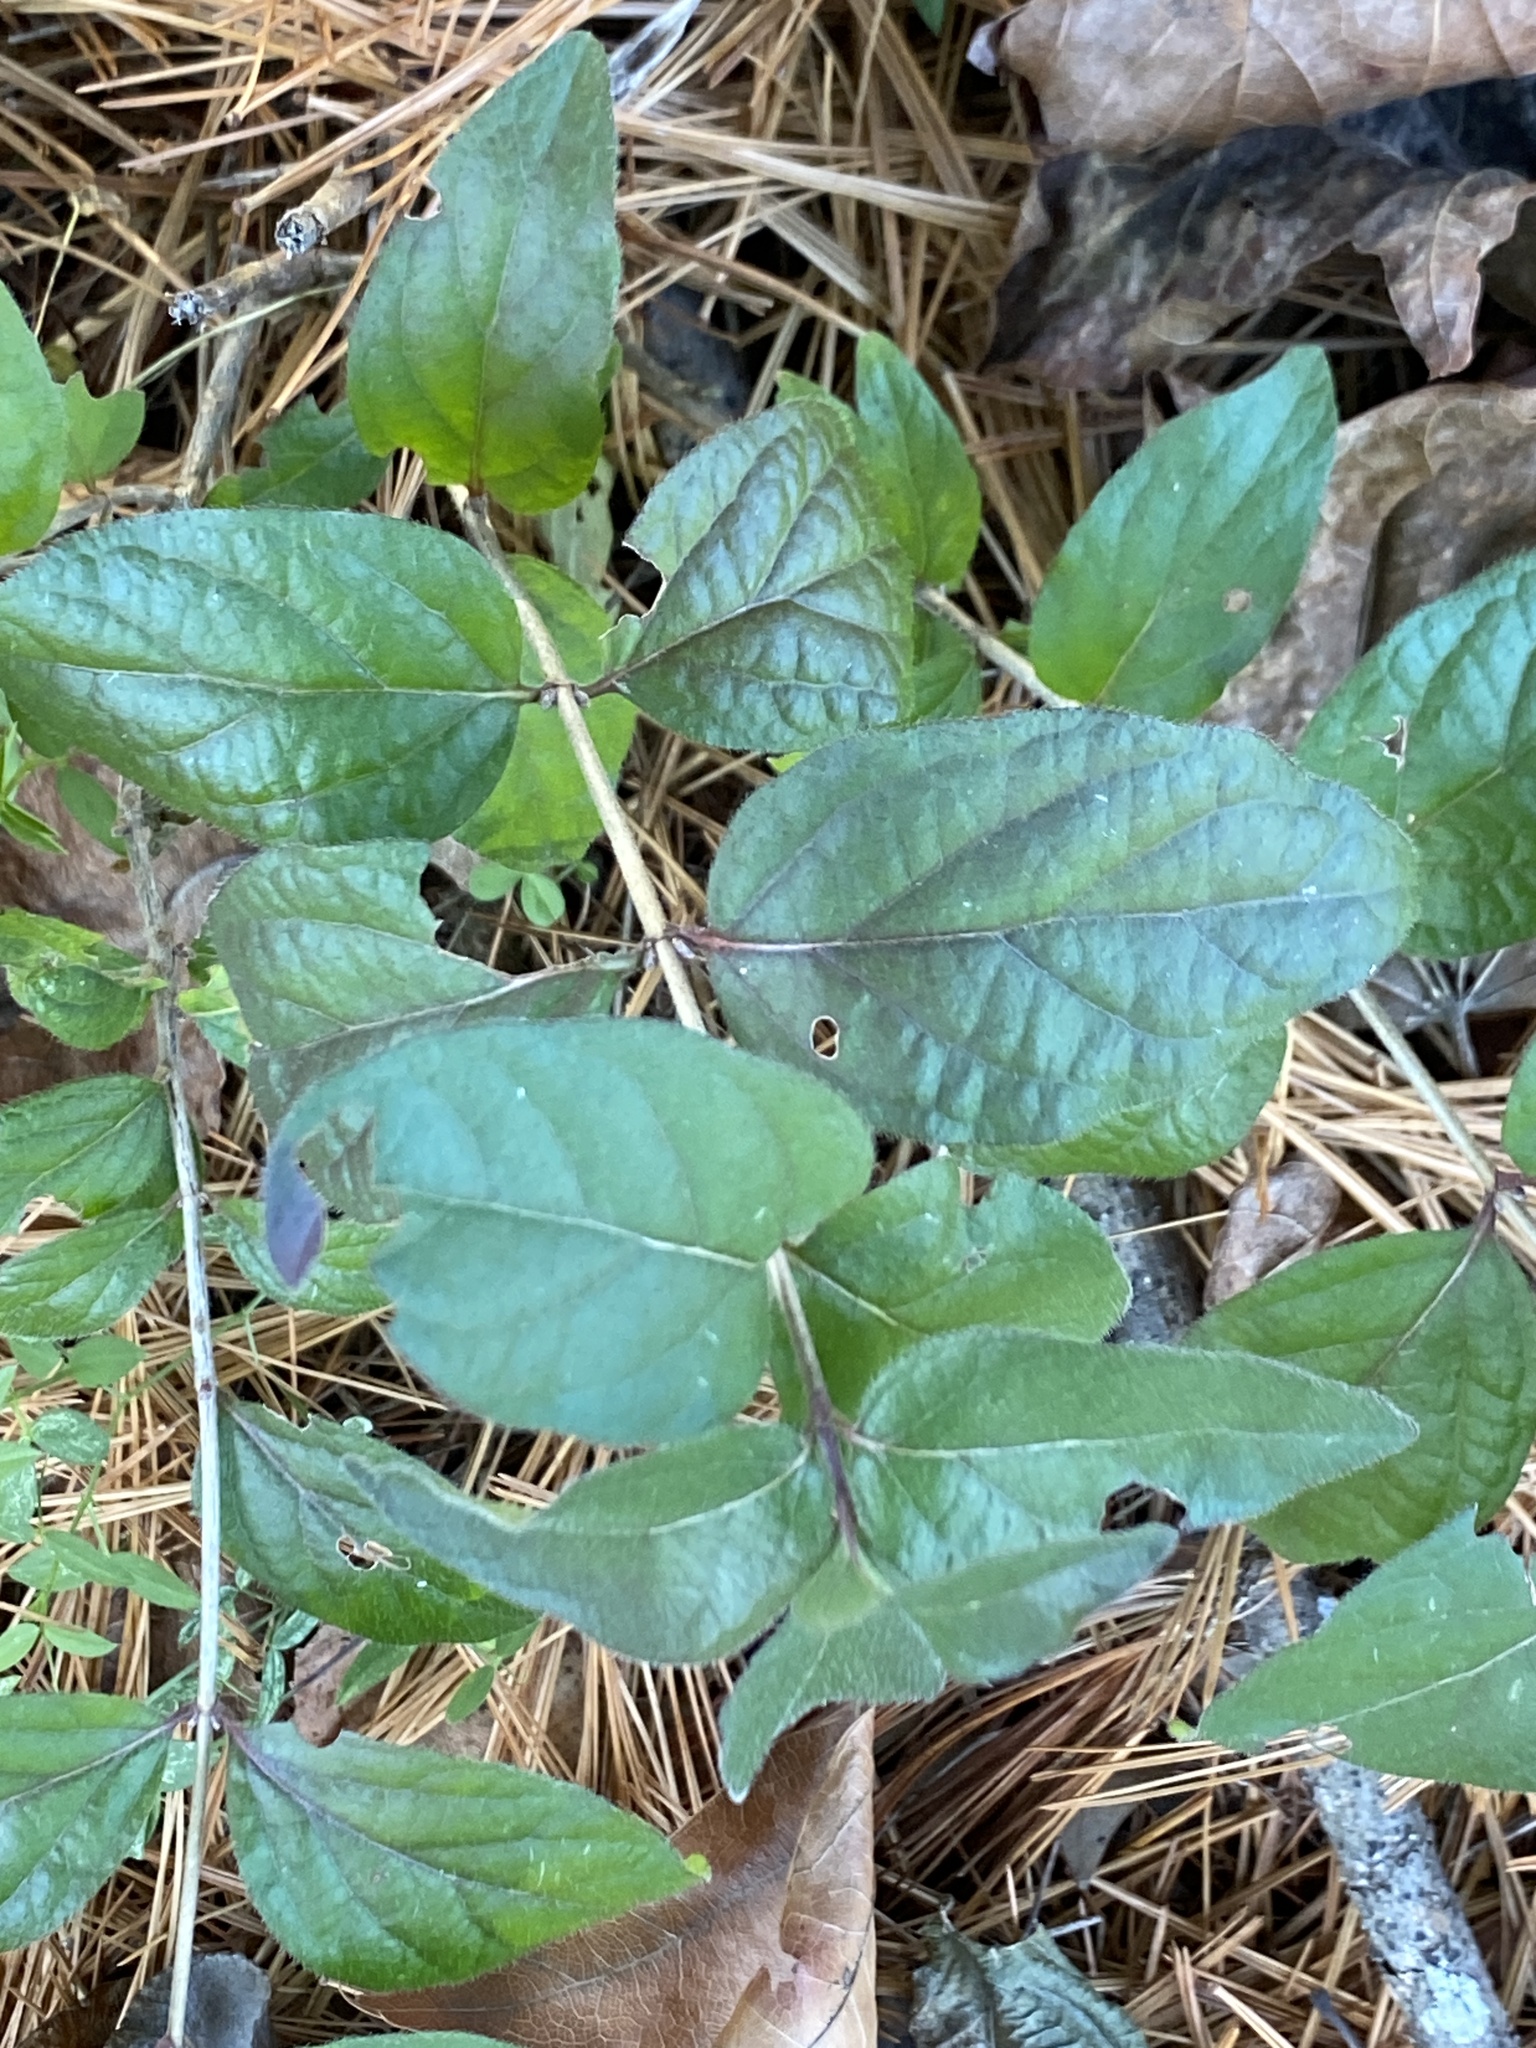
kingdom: Plantae
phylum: Tracheophyta
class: Magnoliopsida
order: Dipsacales
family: Caprifoliaceae
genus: Lonicera
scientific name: Lonicera maackii
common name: Amur honeysuckle
